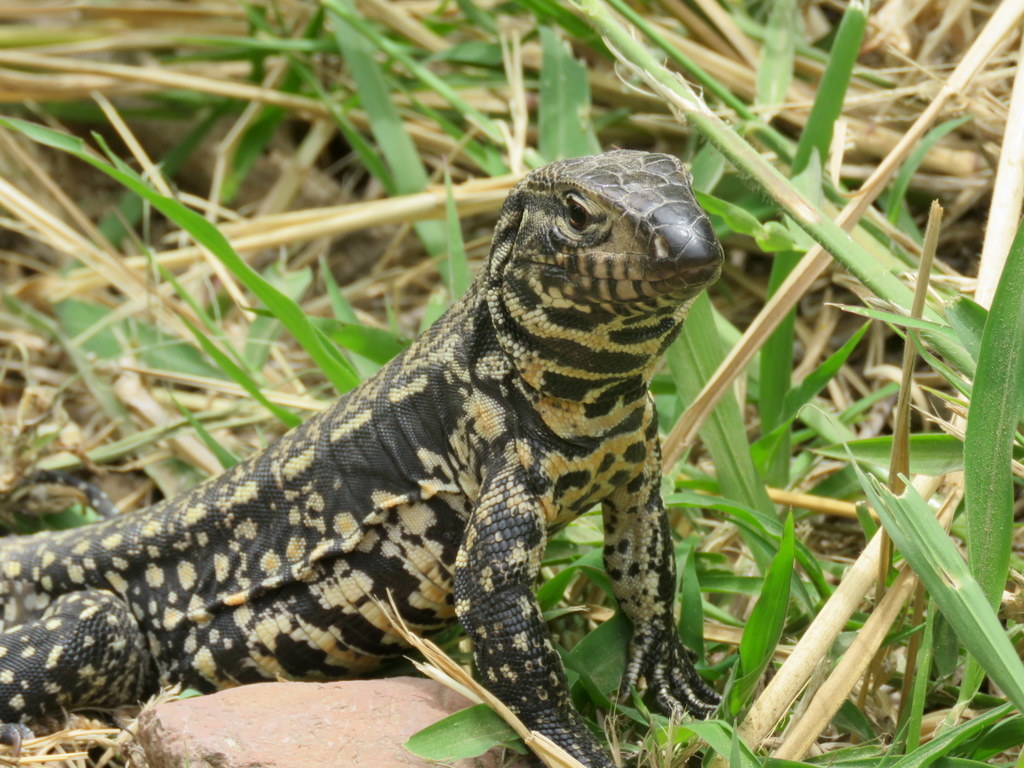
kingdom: Animalia
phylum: Chordata
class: Squamata
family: Teiidae
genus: Salvator
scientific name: Salvator merianae
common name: Argentine black and white tegu
